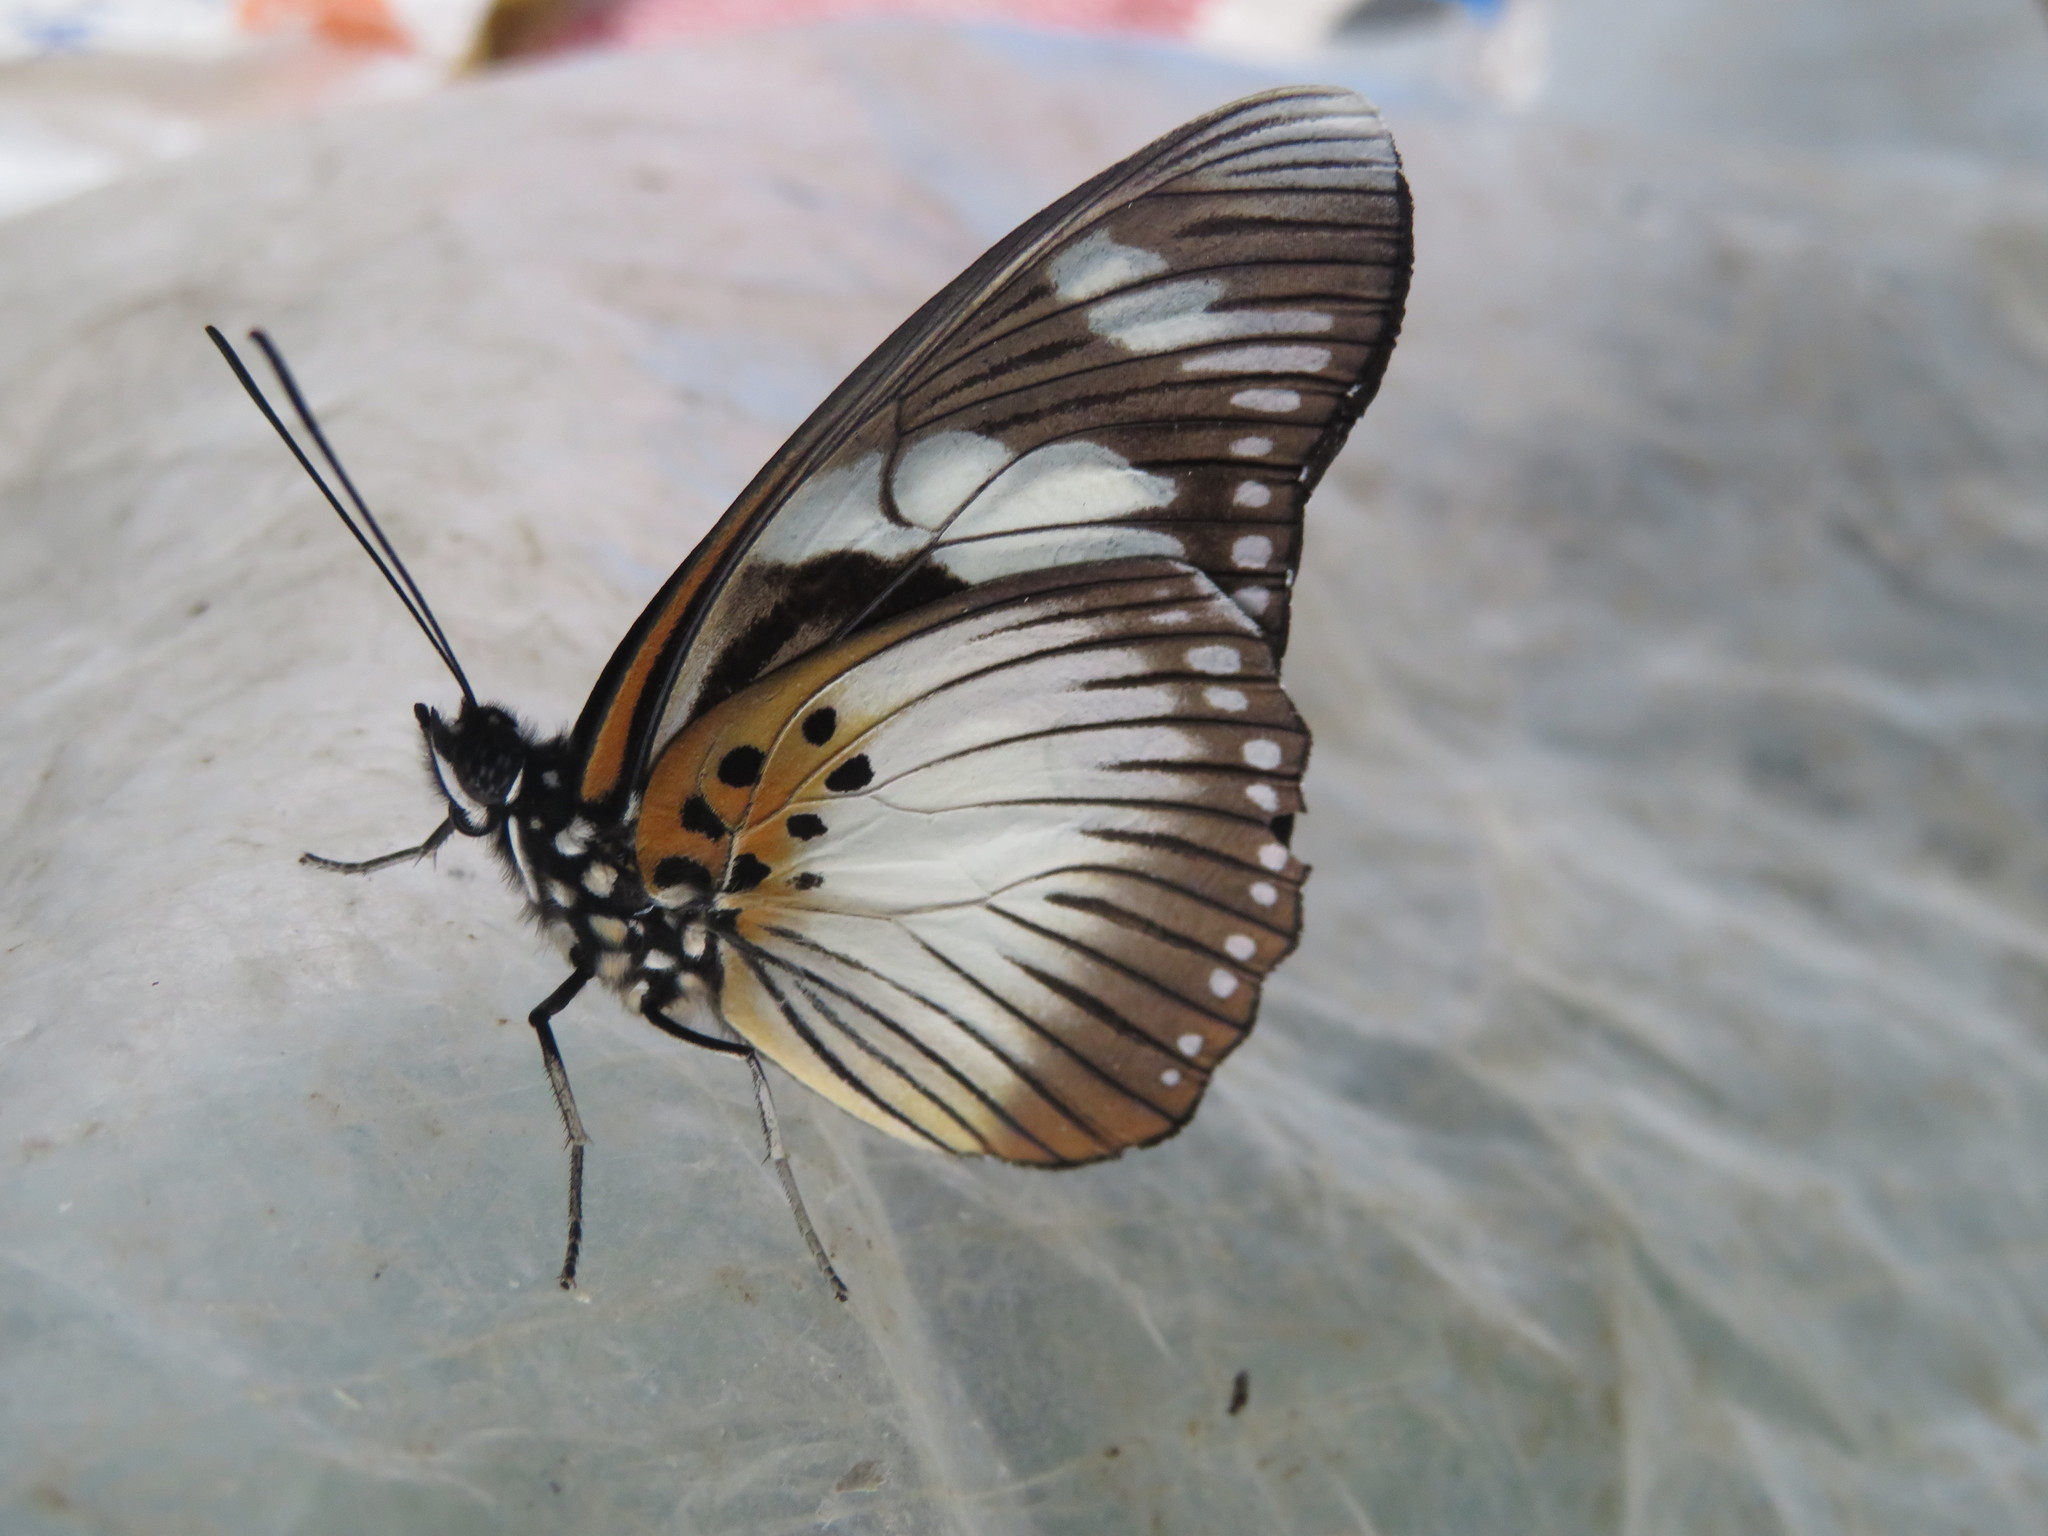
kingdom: Animalia
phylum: Arthropoda
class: Insecta
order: Lepidoptera
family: Nymphalidae
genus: Chloropoea
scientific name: Chloropoea lucretia
